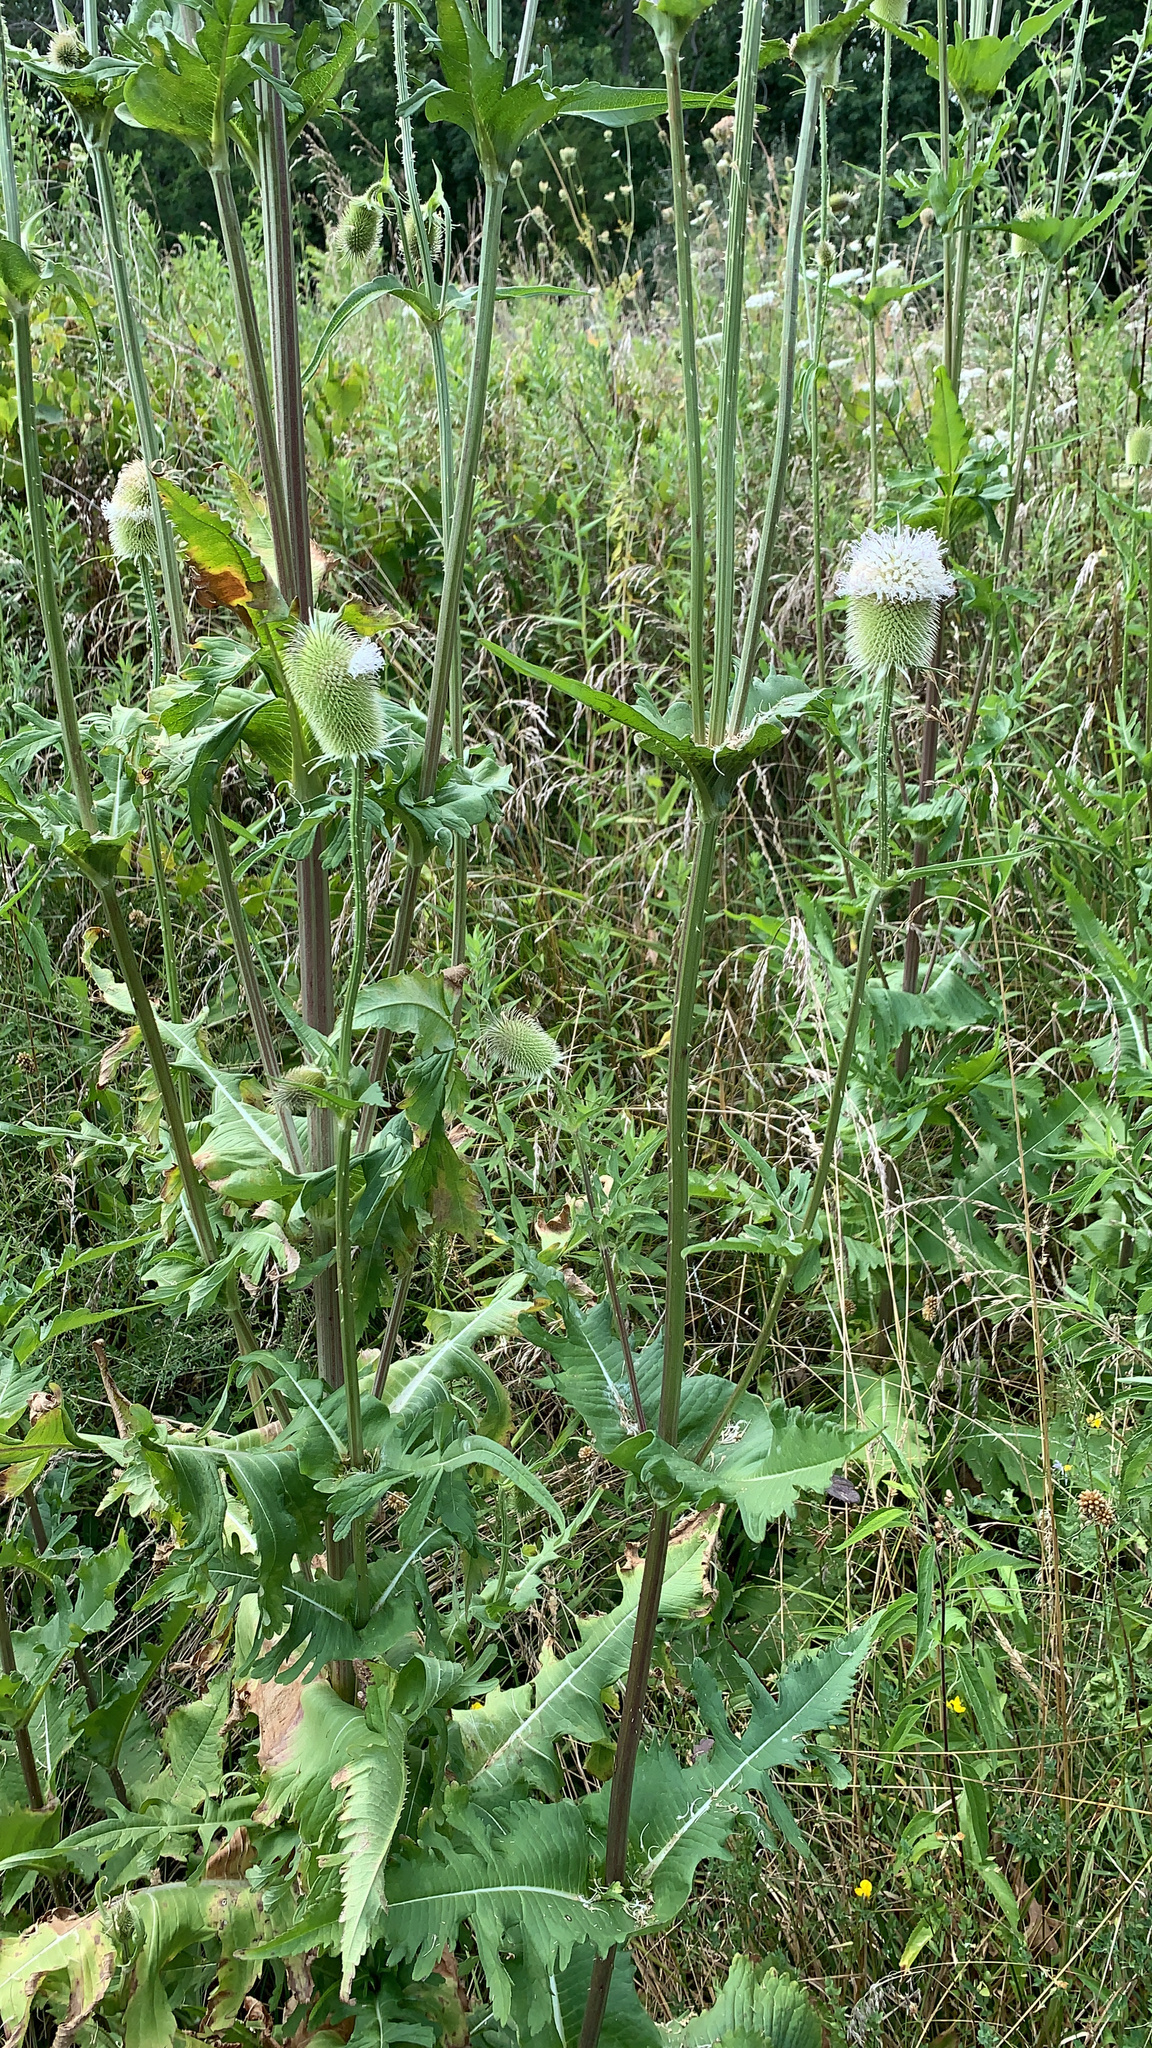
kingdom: Plantae
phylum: Tracheophyta
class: Magnoliopsida
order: Dipsacales
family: Caprifoliaceae
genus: Dipsacus
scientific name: Dipsacus laciniatus
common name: Cut-leaved teasel
